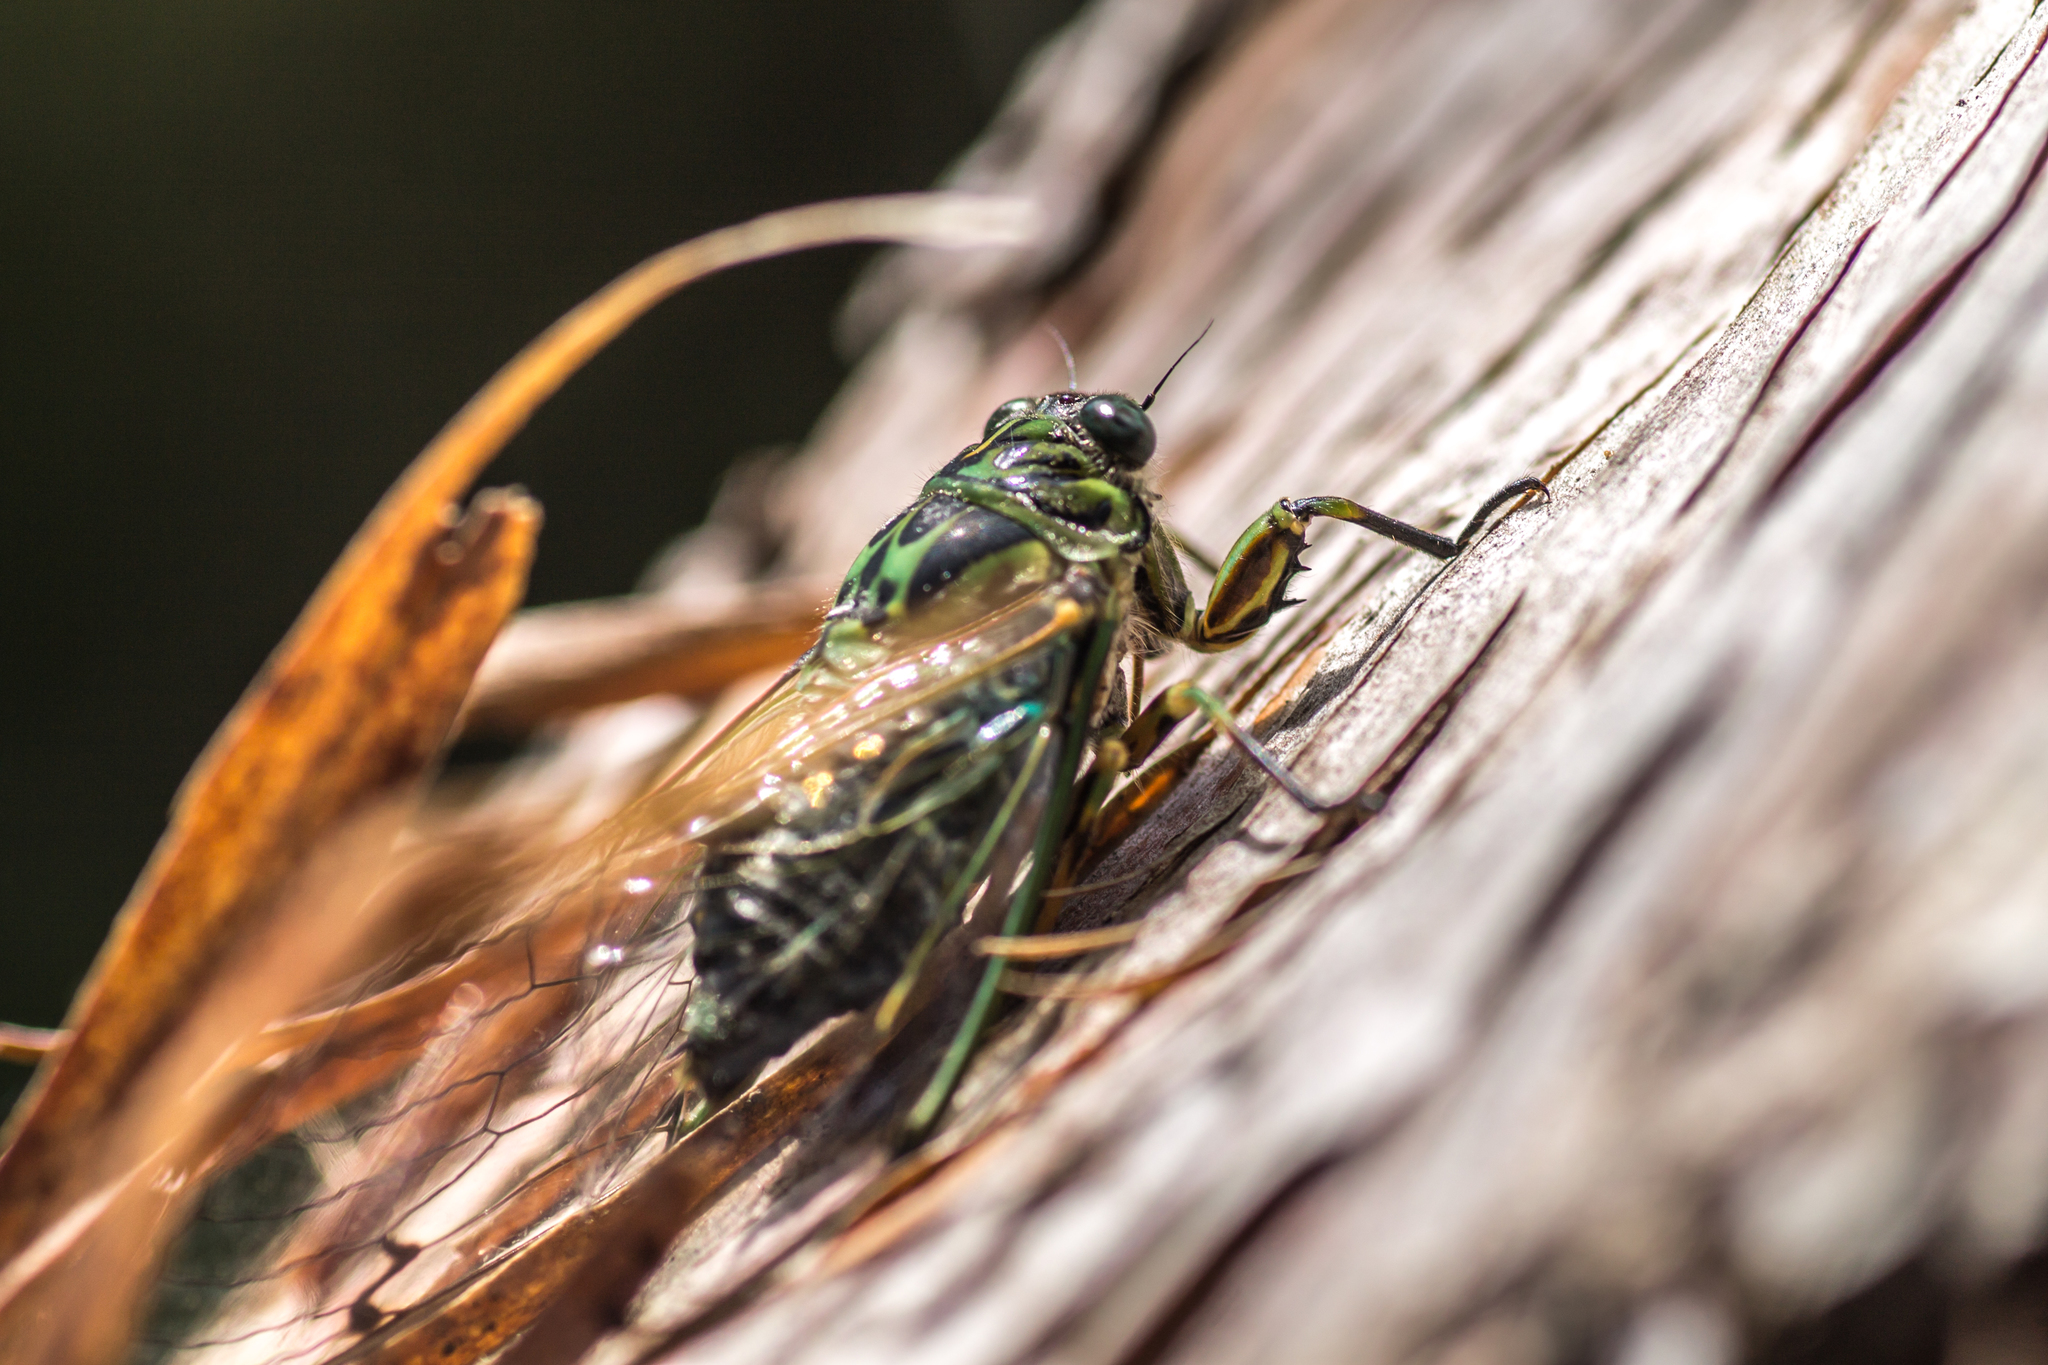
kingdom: Animalia
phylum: Arthropoda
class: Insecta
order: Hemiptera
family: Cicadidae
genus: Amphipsalta
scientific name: Amphipsalta zelandica
